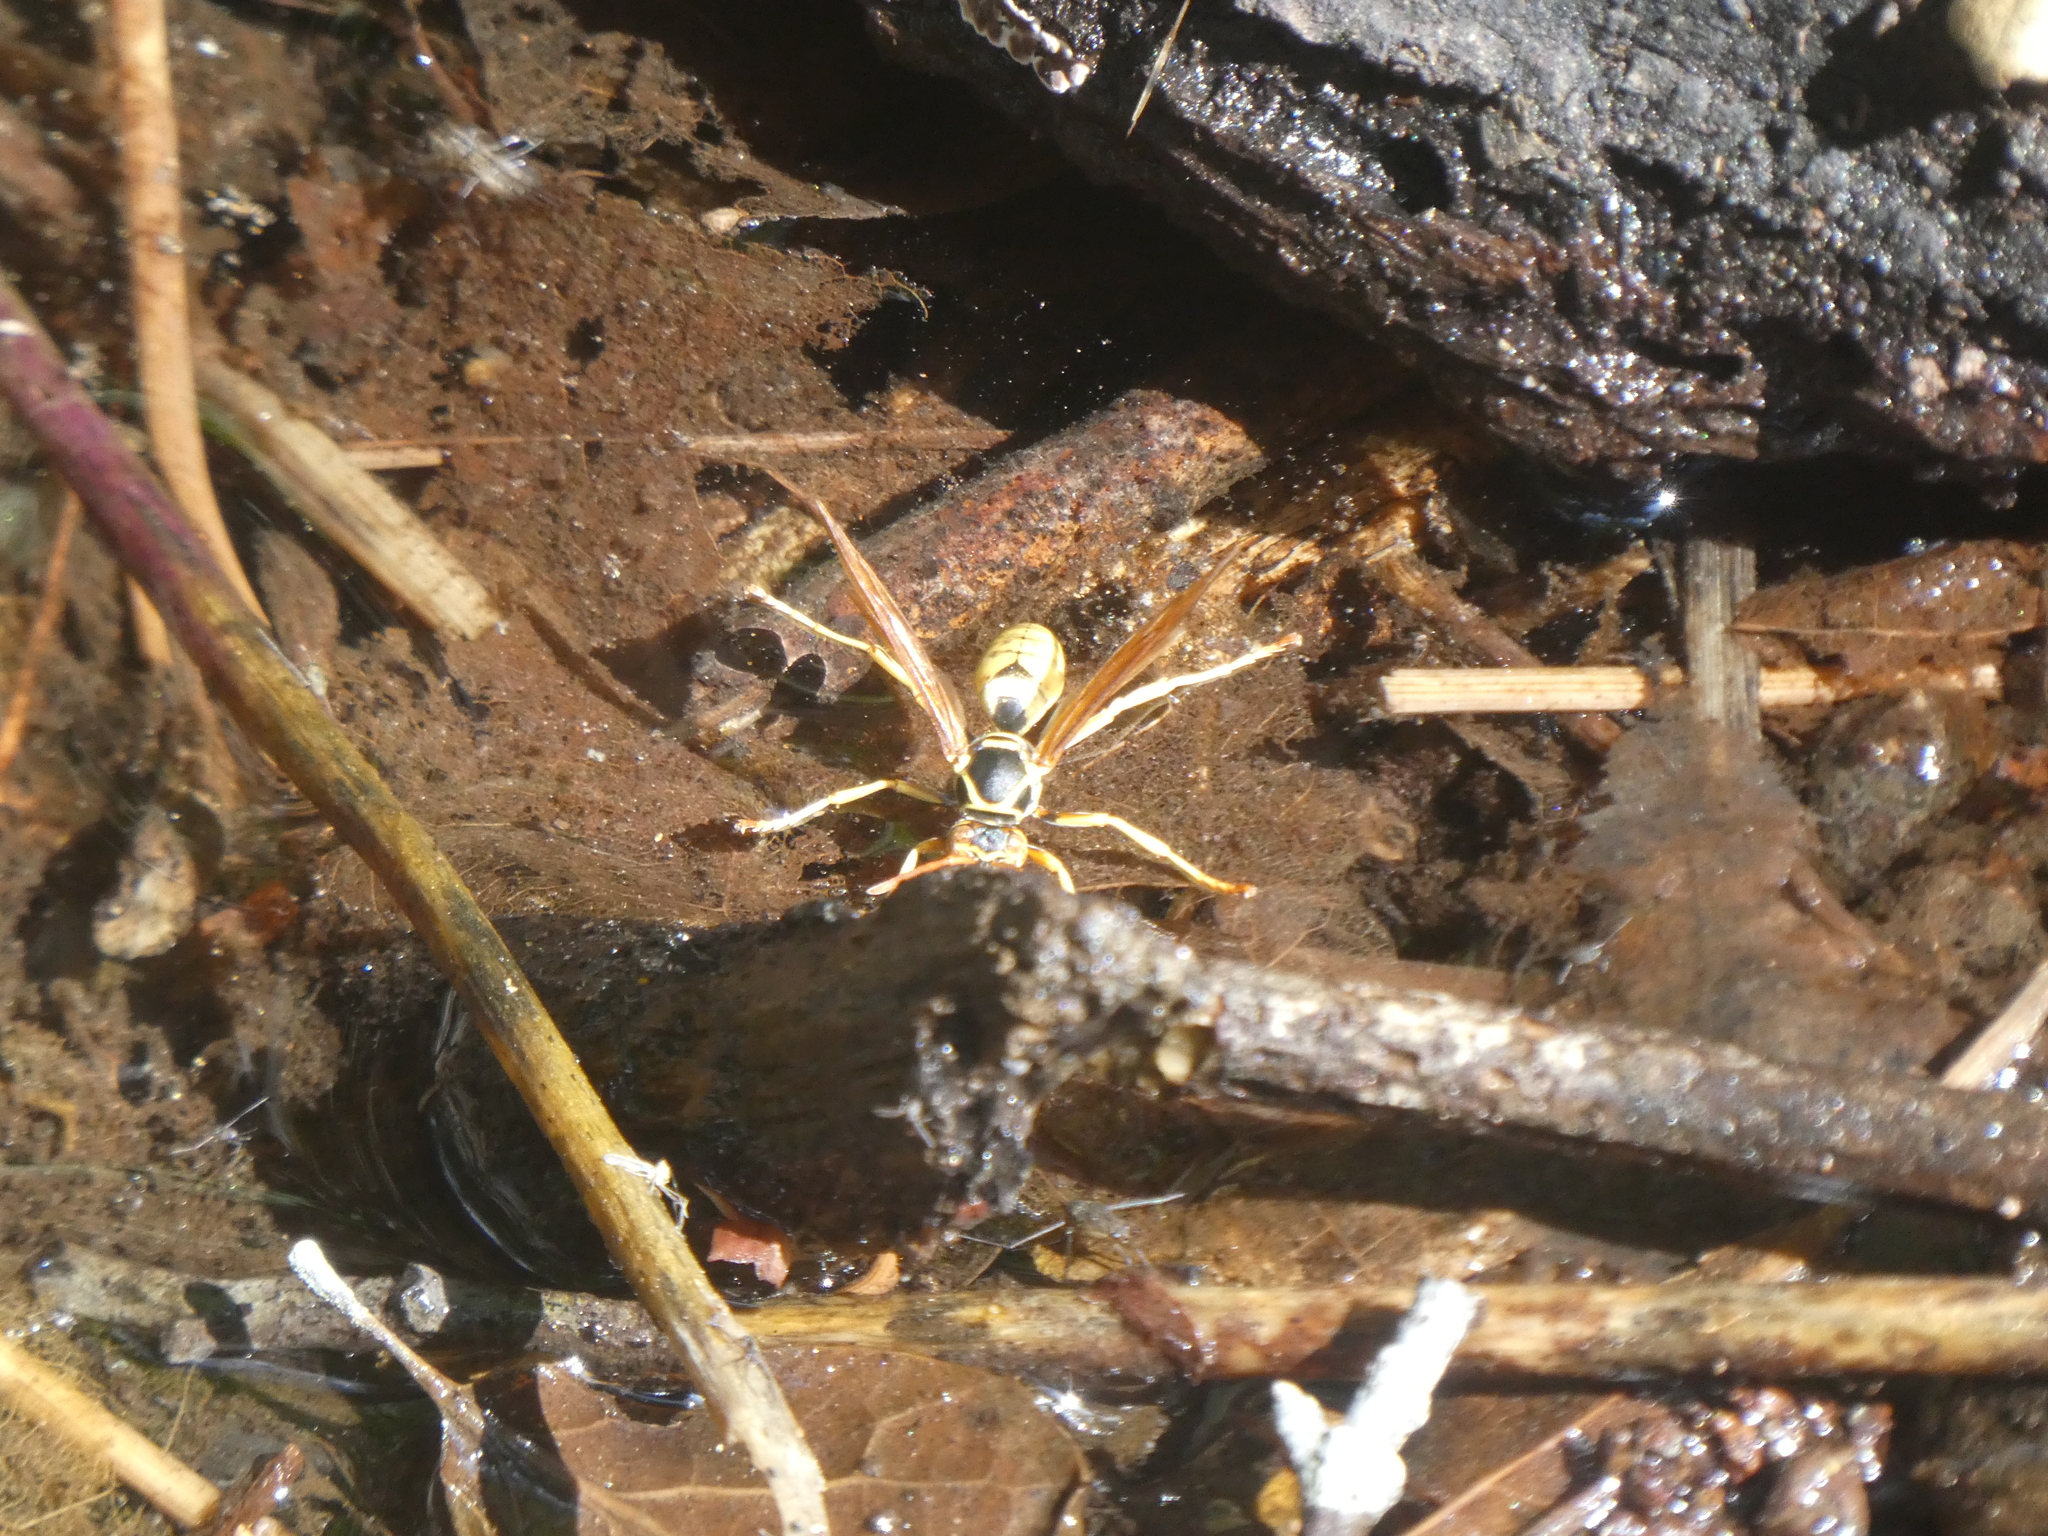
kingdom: Animalia
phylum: Arthropoda
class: Insecta
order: Hymenoptera
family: Eumenidae
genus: Polistes
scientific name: Polistes aurifer
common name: Paper wasp
